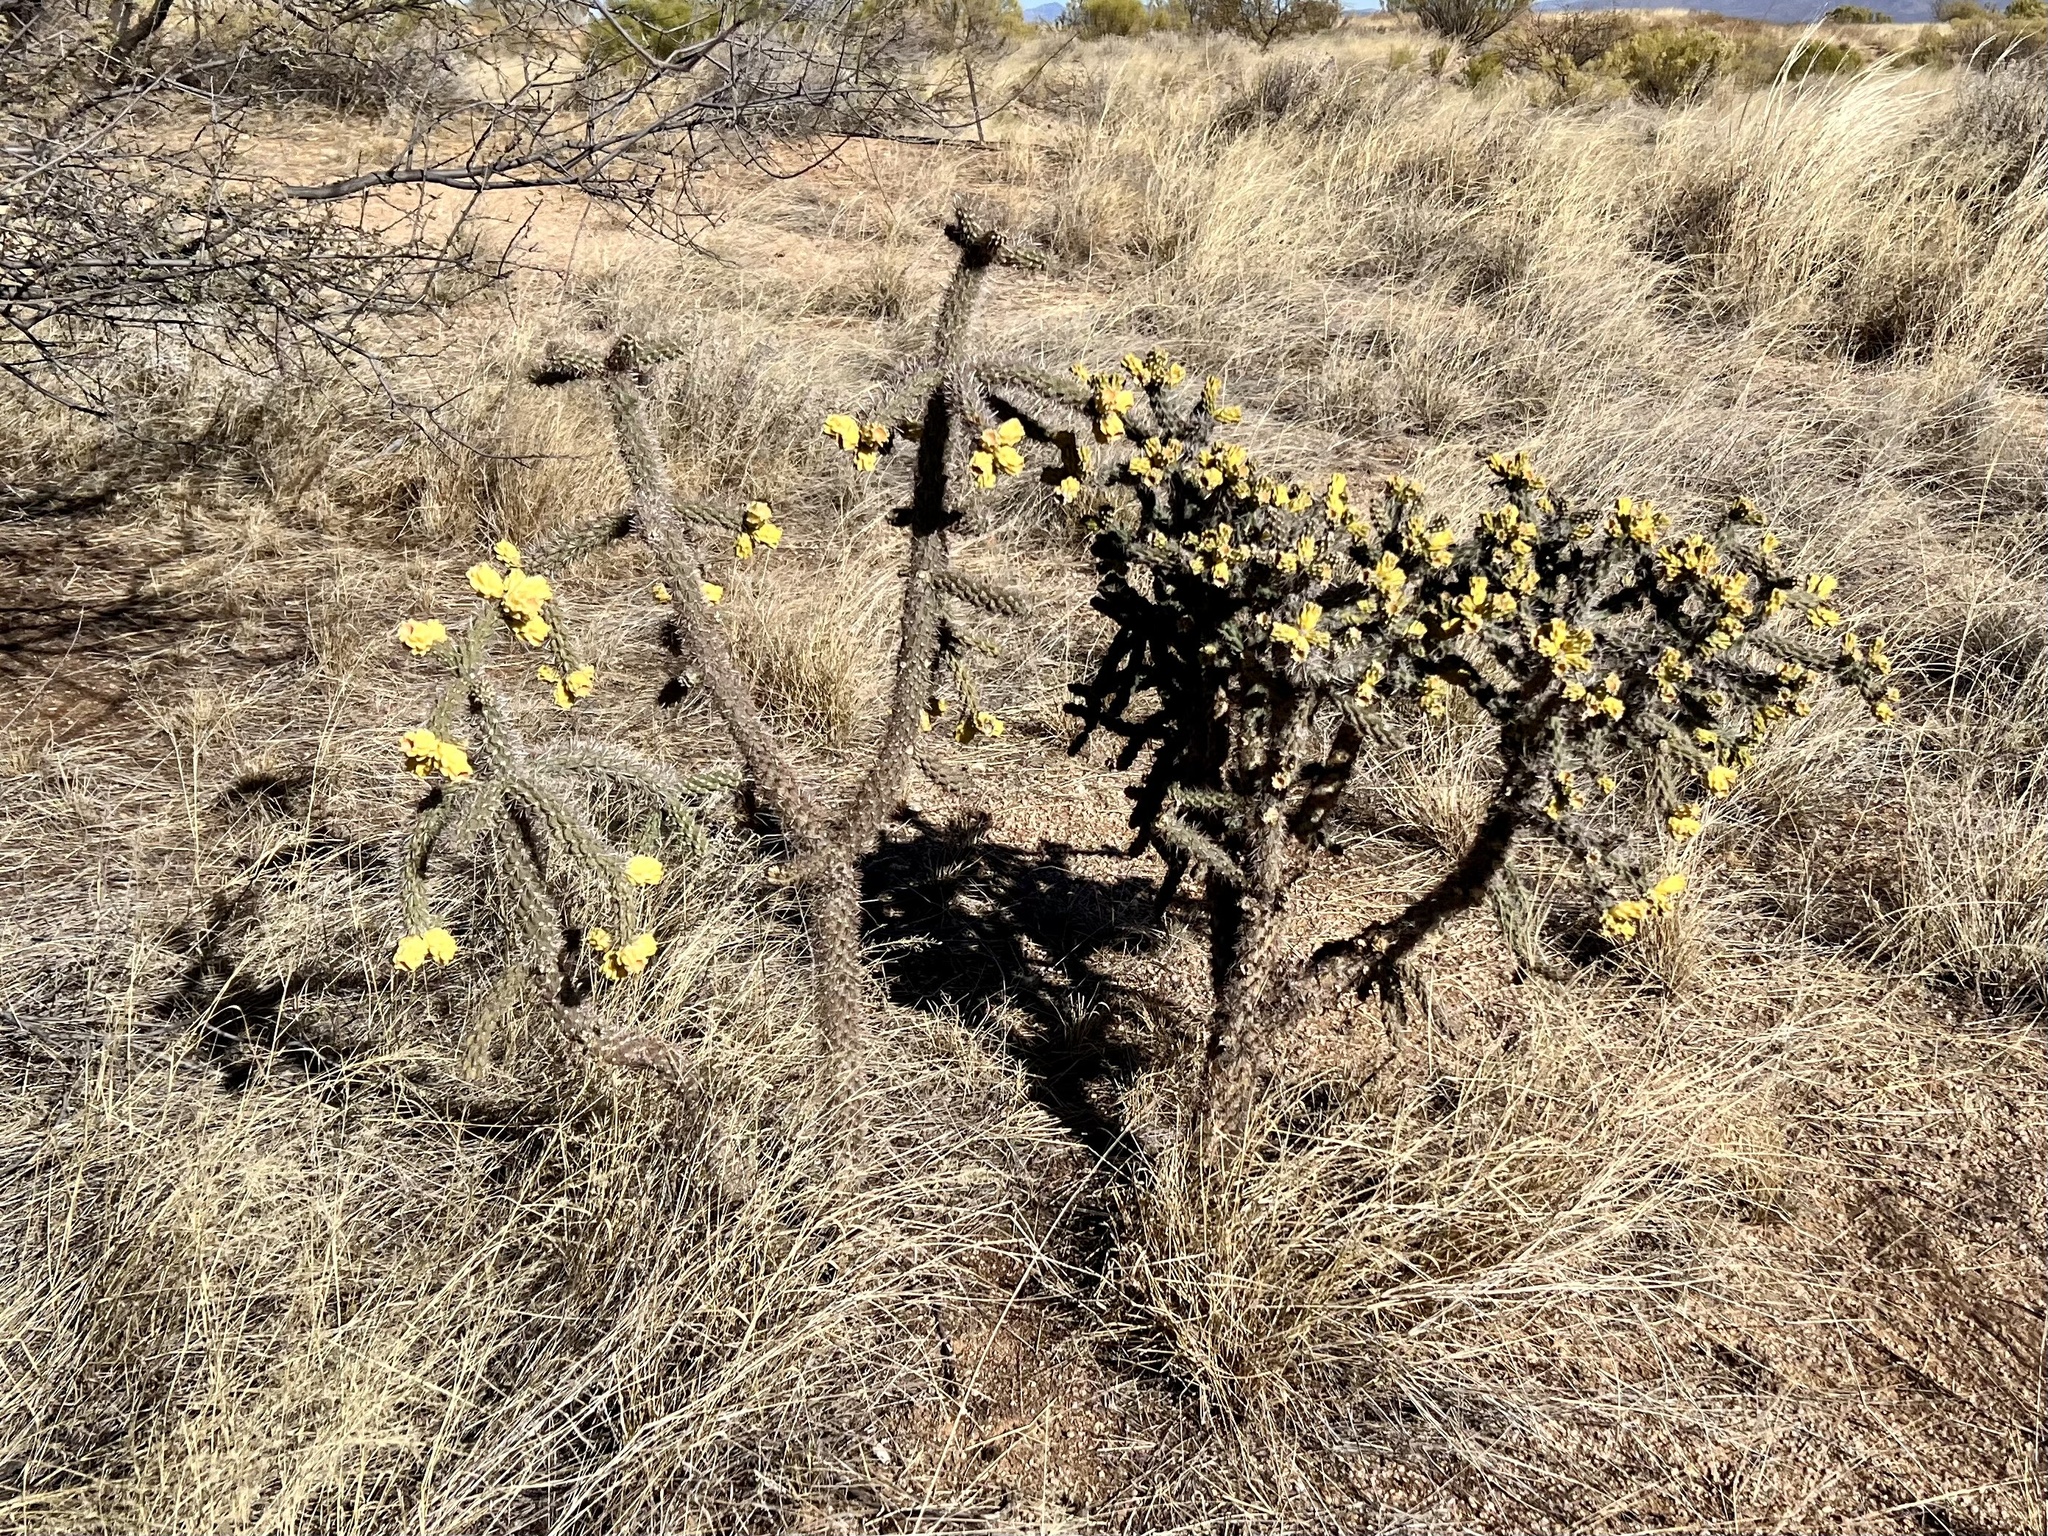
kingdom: Plantae
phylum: Tracheophyta
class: Magnoliopsida
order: Caryophyllales
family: Cactaceae
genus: Cylindropuntia
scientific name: Cylindropuntia imbricata
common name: Candelabrum cactus
